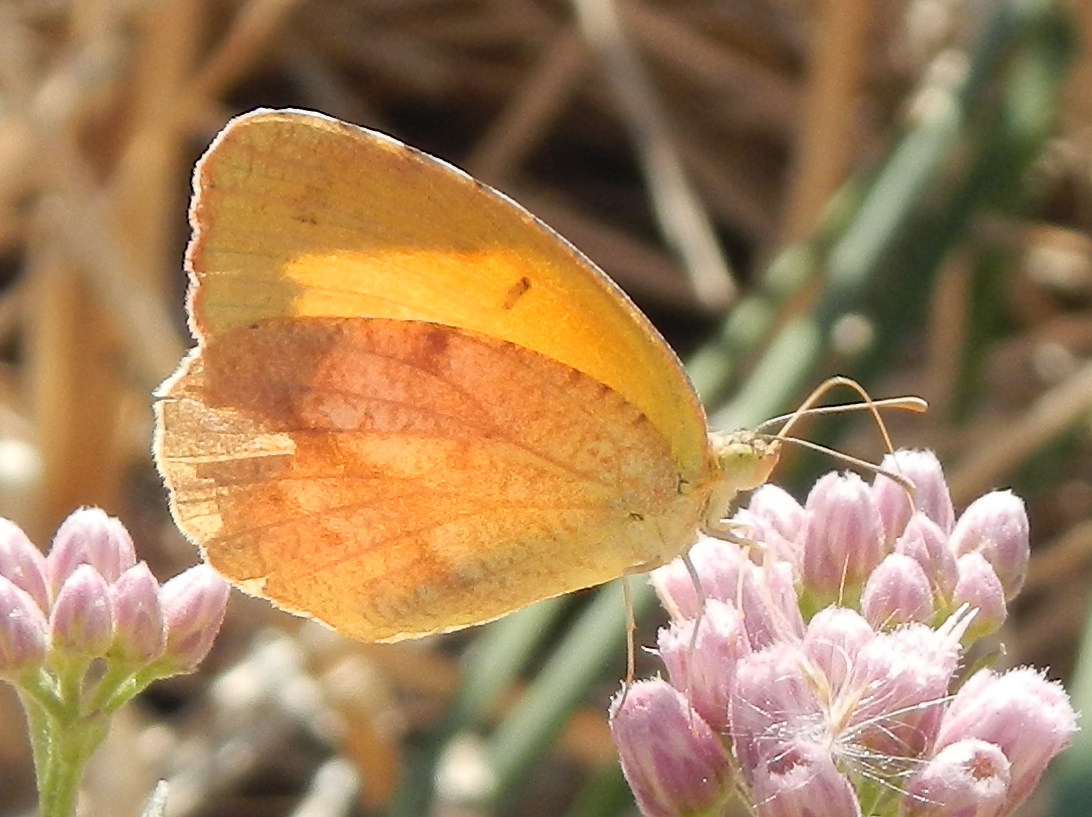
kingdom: Animalia
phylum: Arthropoda
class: Insecta
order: Lepidoptera
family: Pieridae
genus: Abaeis
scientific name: Abaeis nicippe
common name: Sleepy orange
